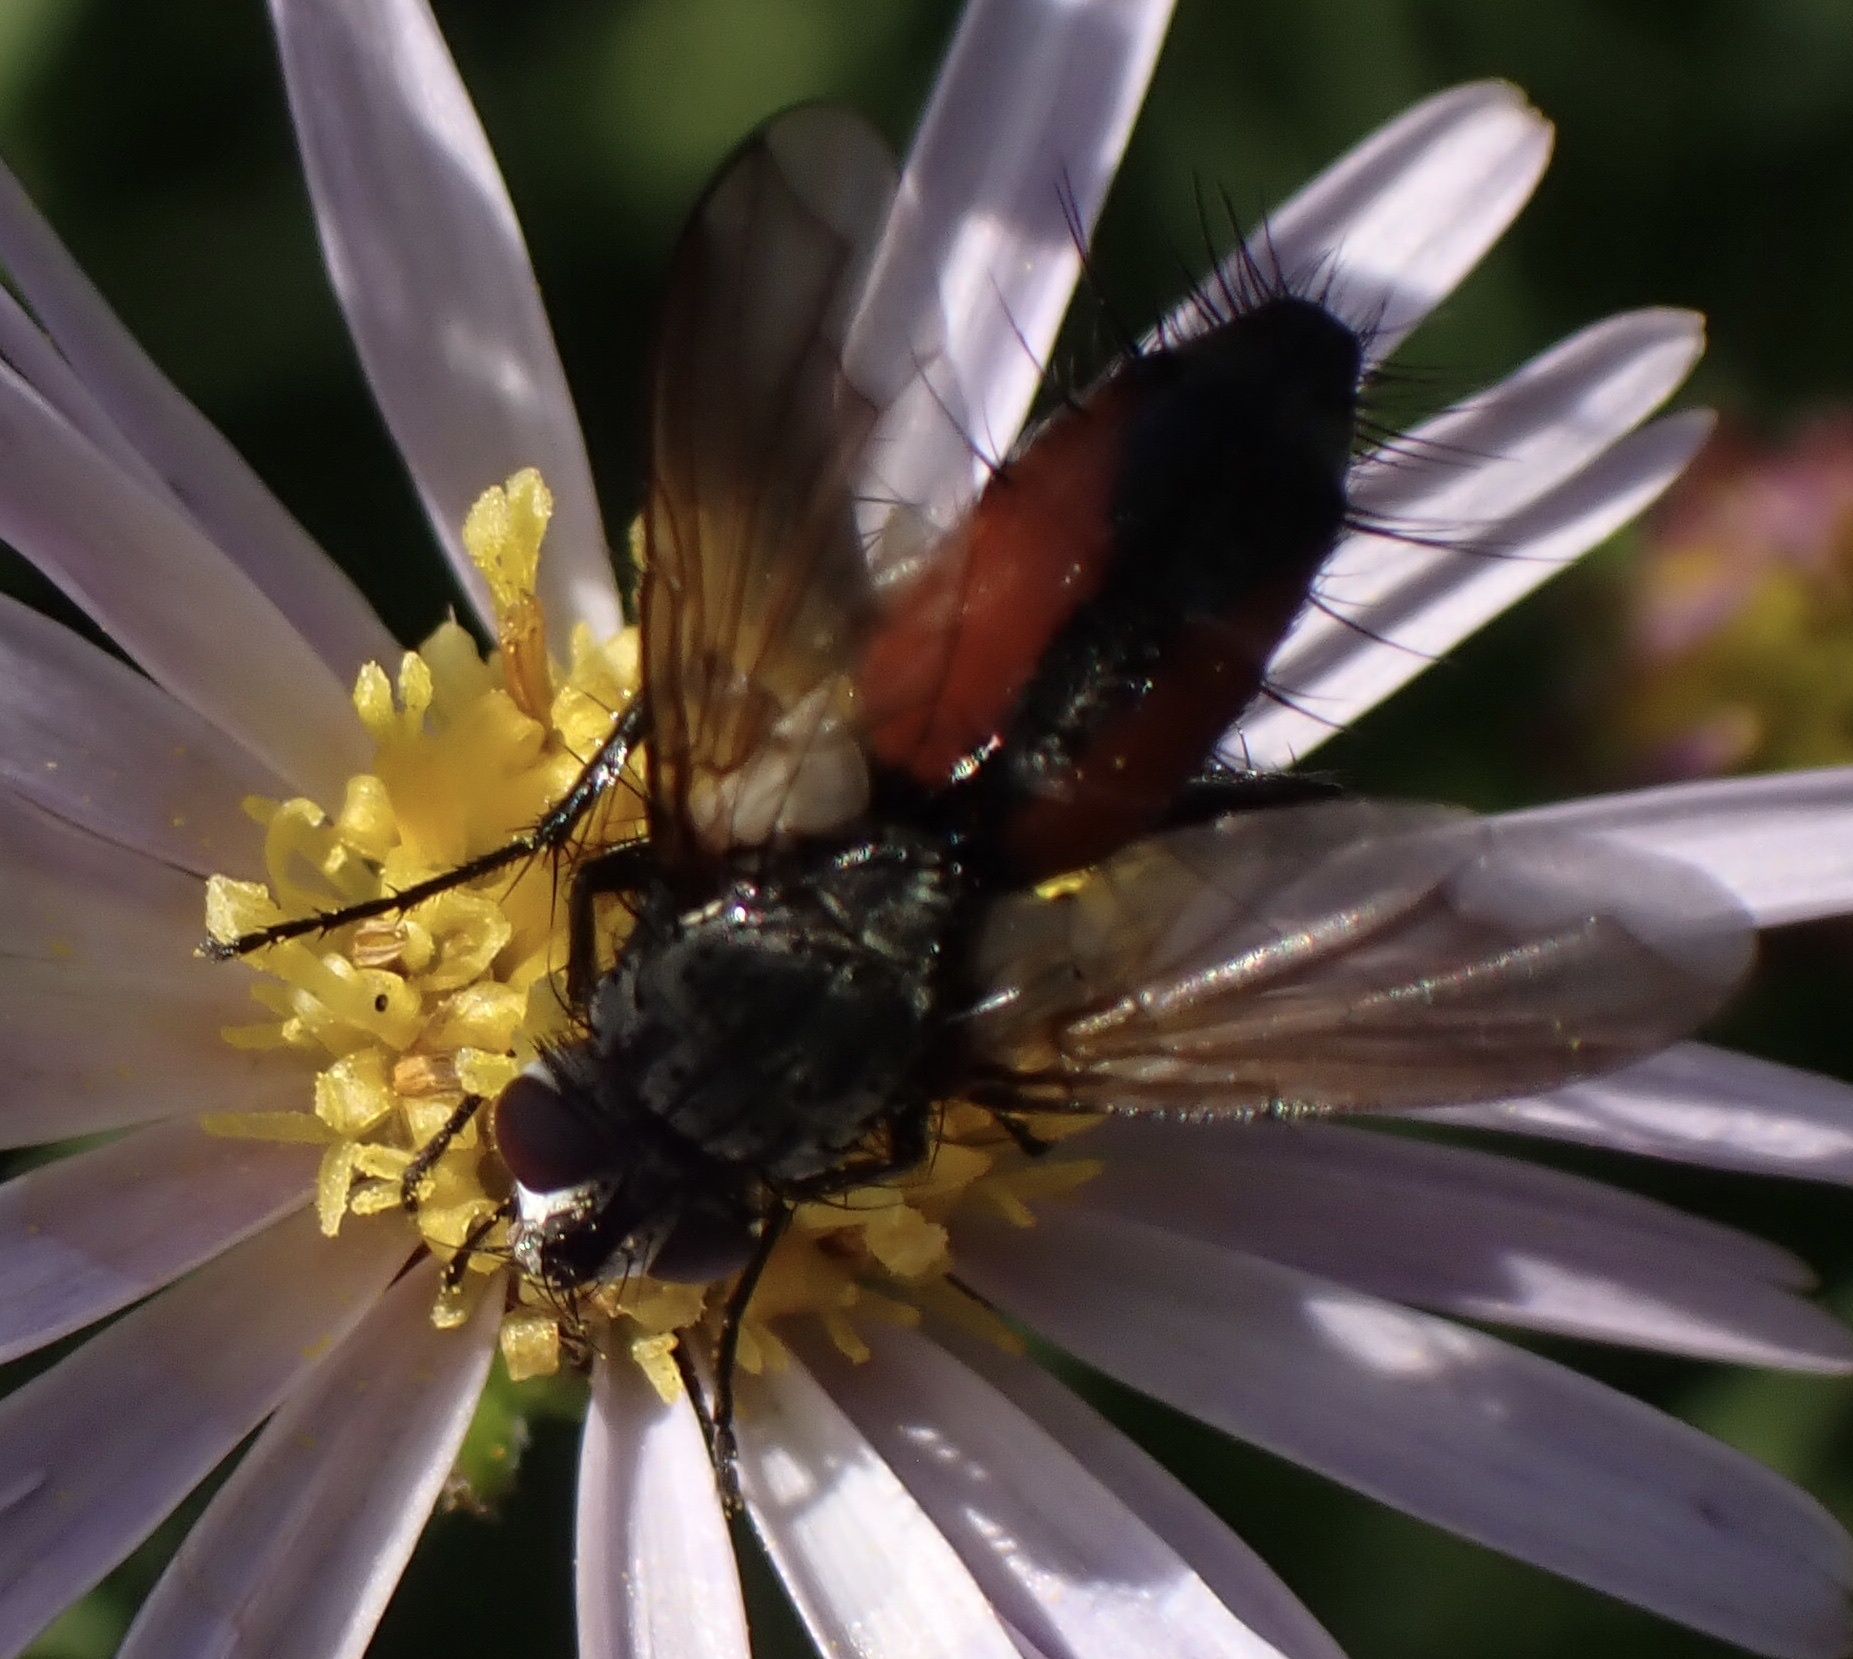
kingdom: Animalia
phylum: Arthropoda
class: Insecta
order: Diptera
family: Tachinidae
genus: Eriothrix
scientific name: Eriothrix rufomaculatus
